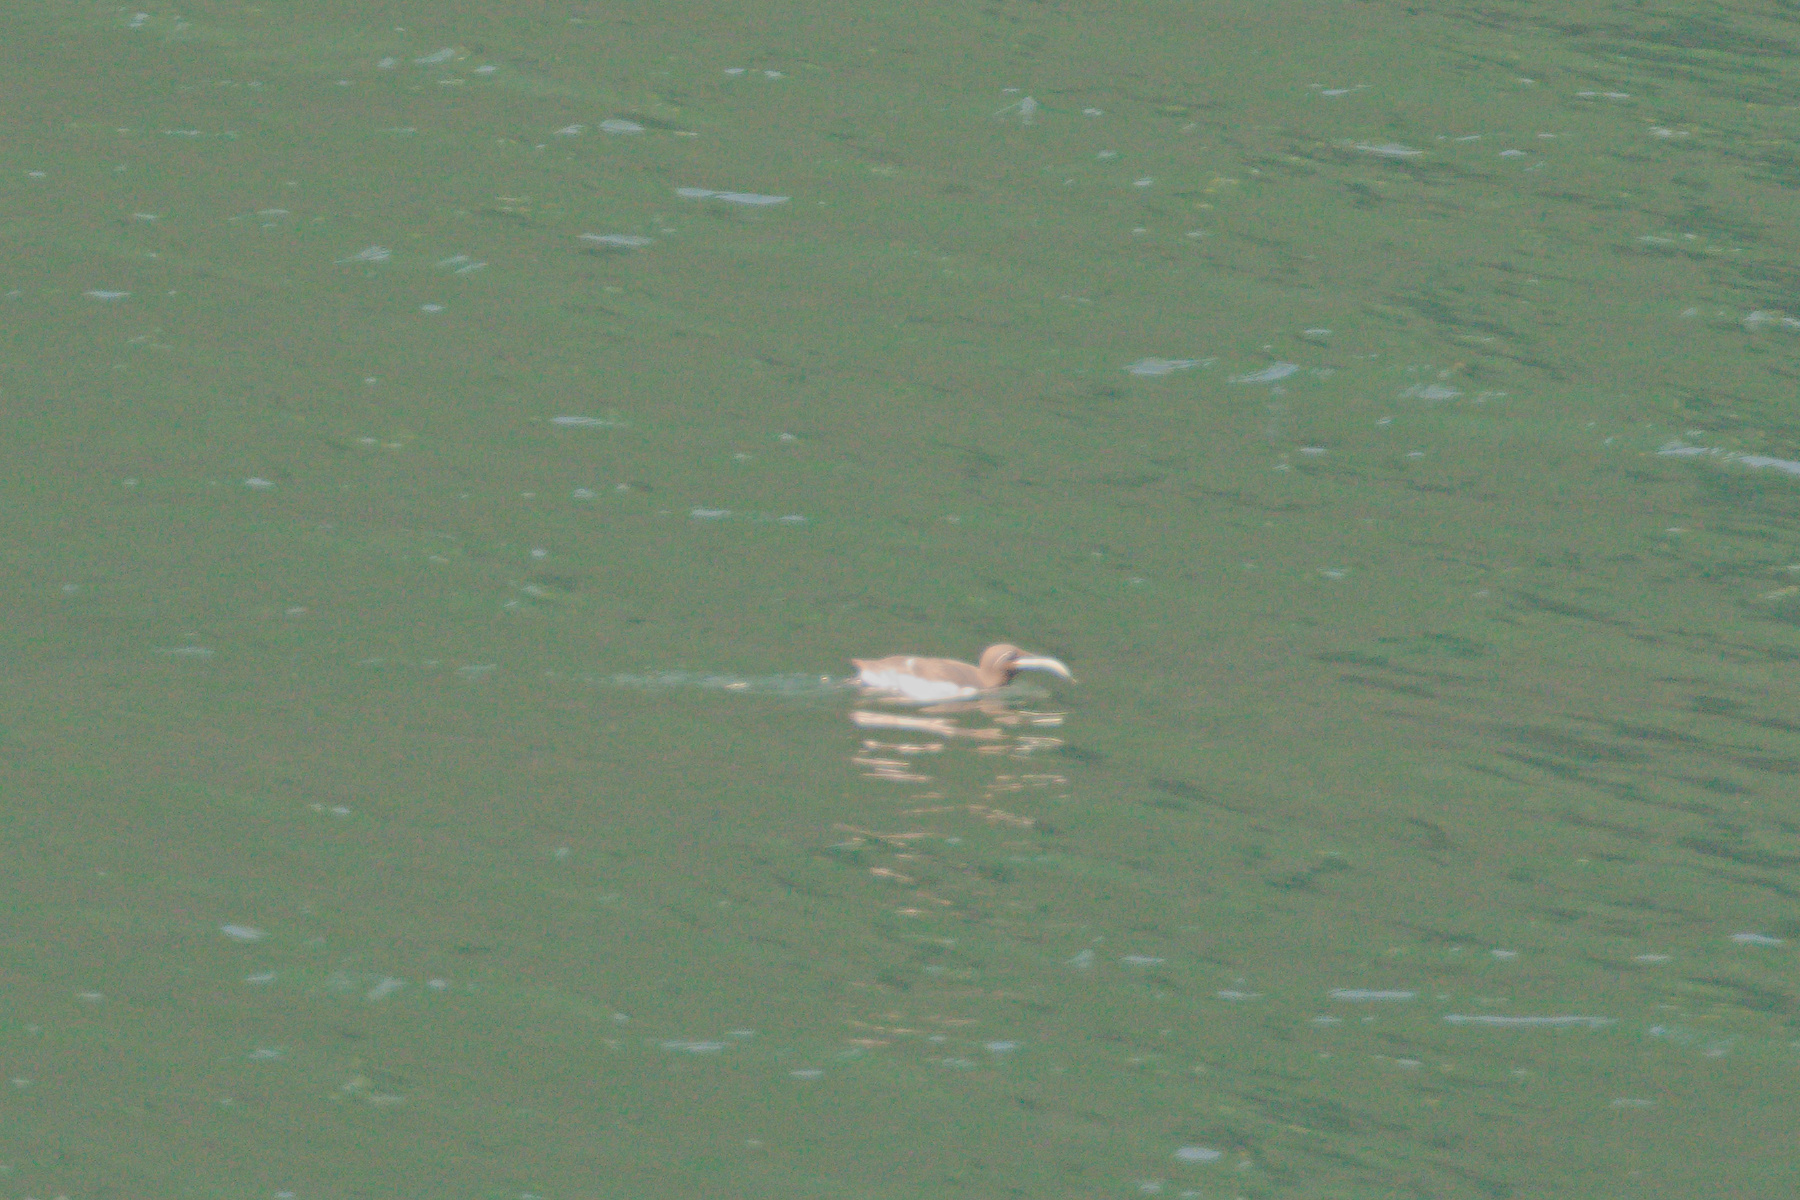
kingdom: Animalia
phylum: Chordata
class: Aves
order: Charadriiformes
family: Alcidae
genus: Uria
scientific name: Uria aalge
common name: Common murre
